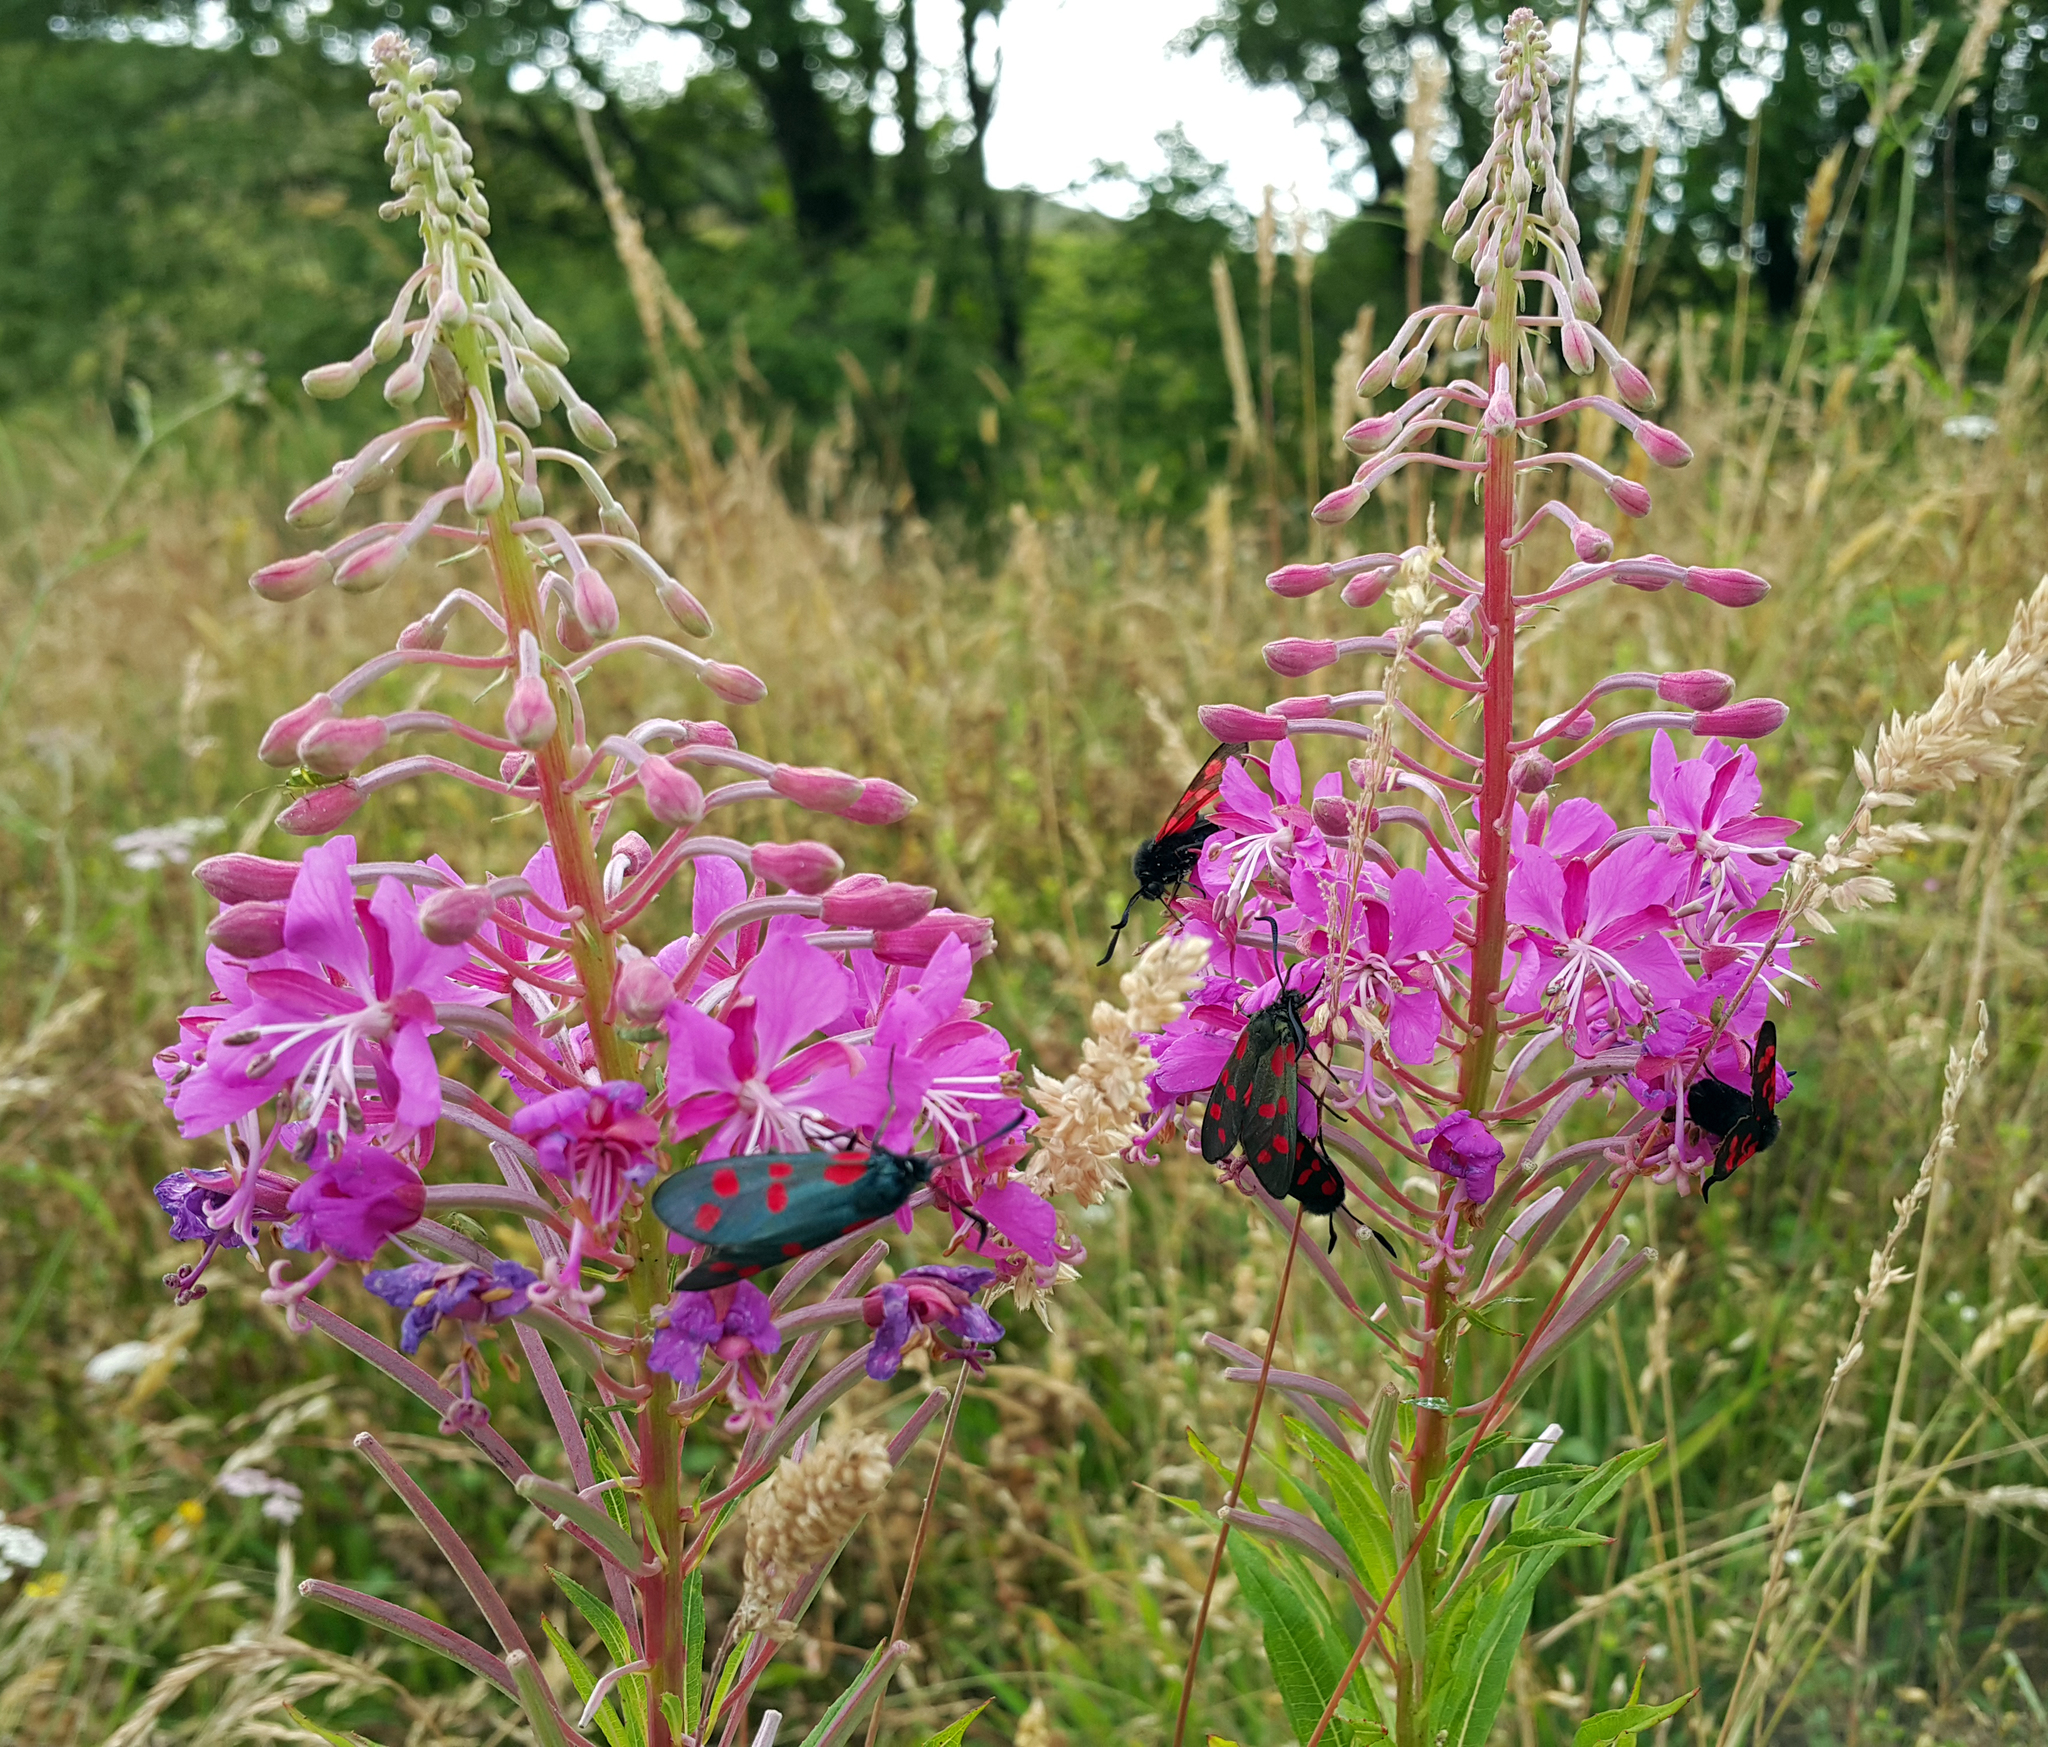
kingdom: Animalia
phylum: Arthropoda
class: Insecta
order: Lepidoptera
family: Zygaenidae
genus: Zygaena
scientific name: Zygaena filipendulae
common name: Six-spot burnet
